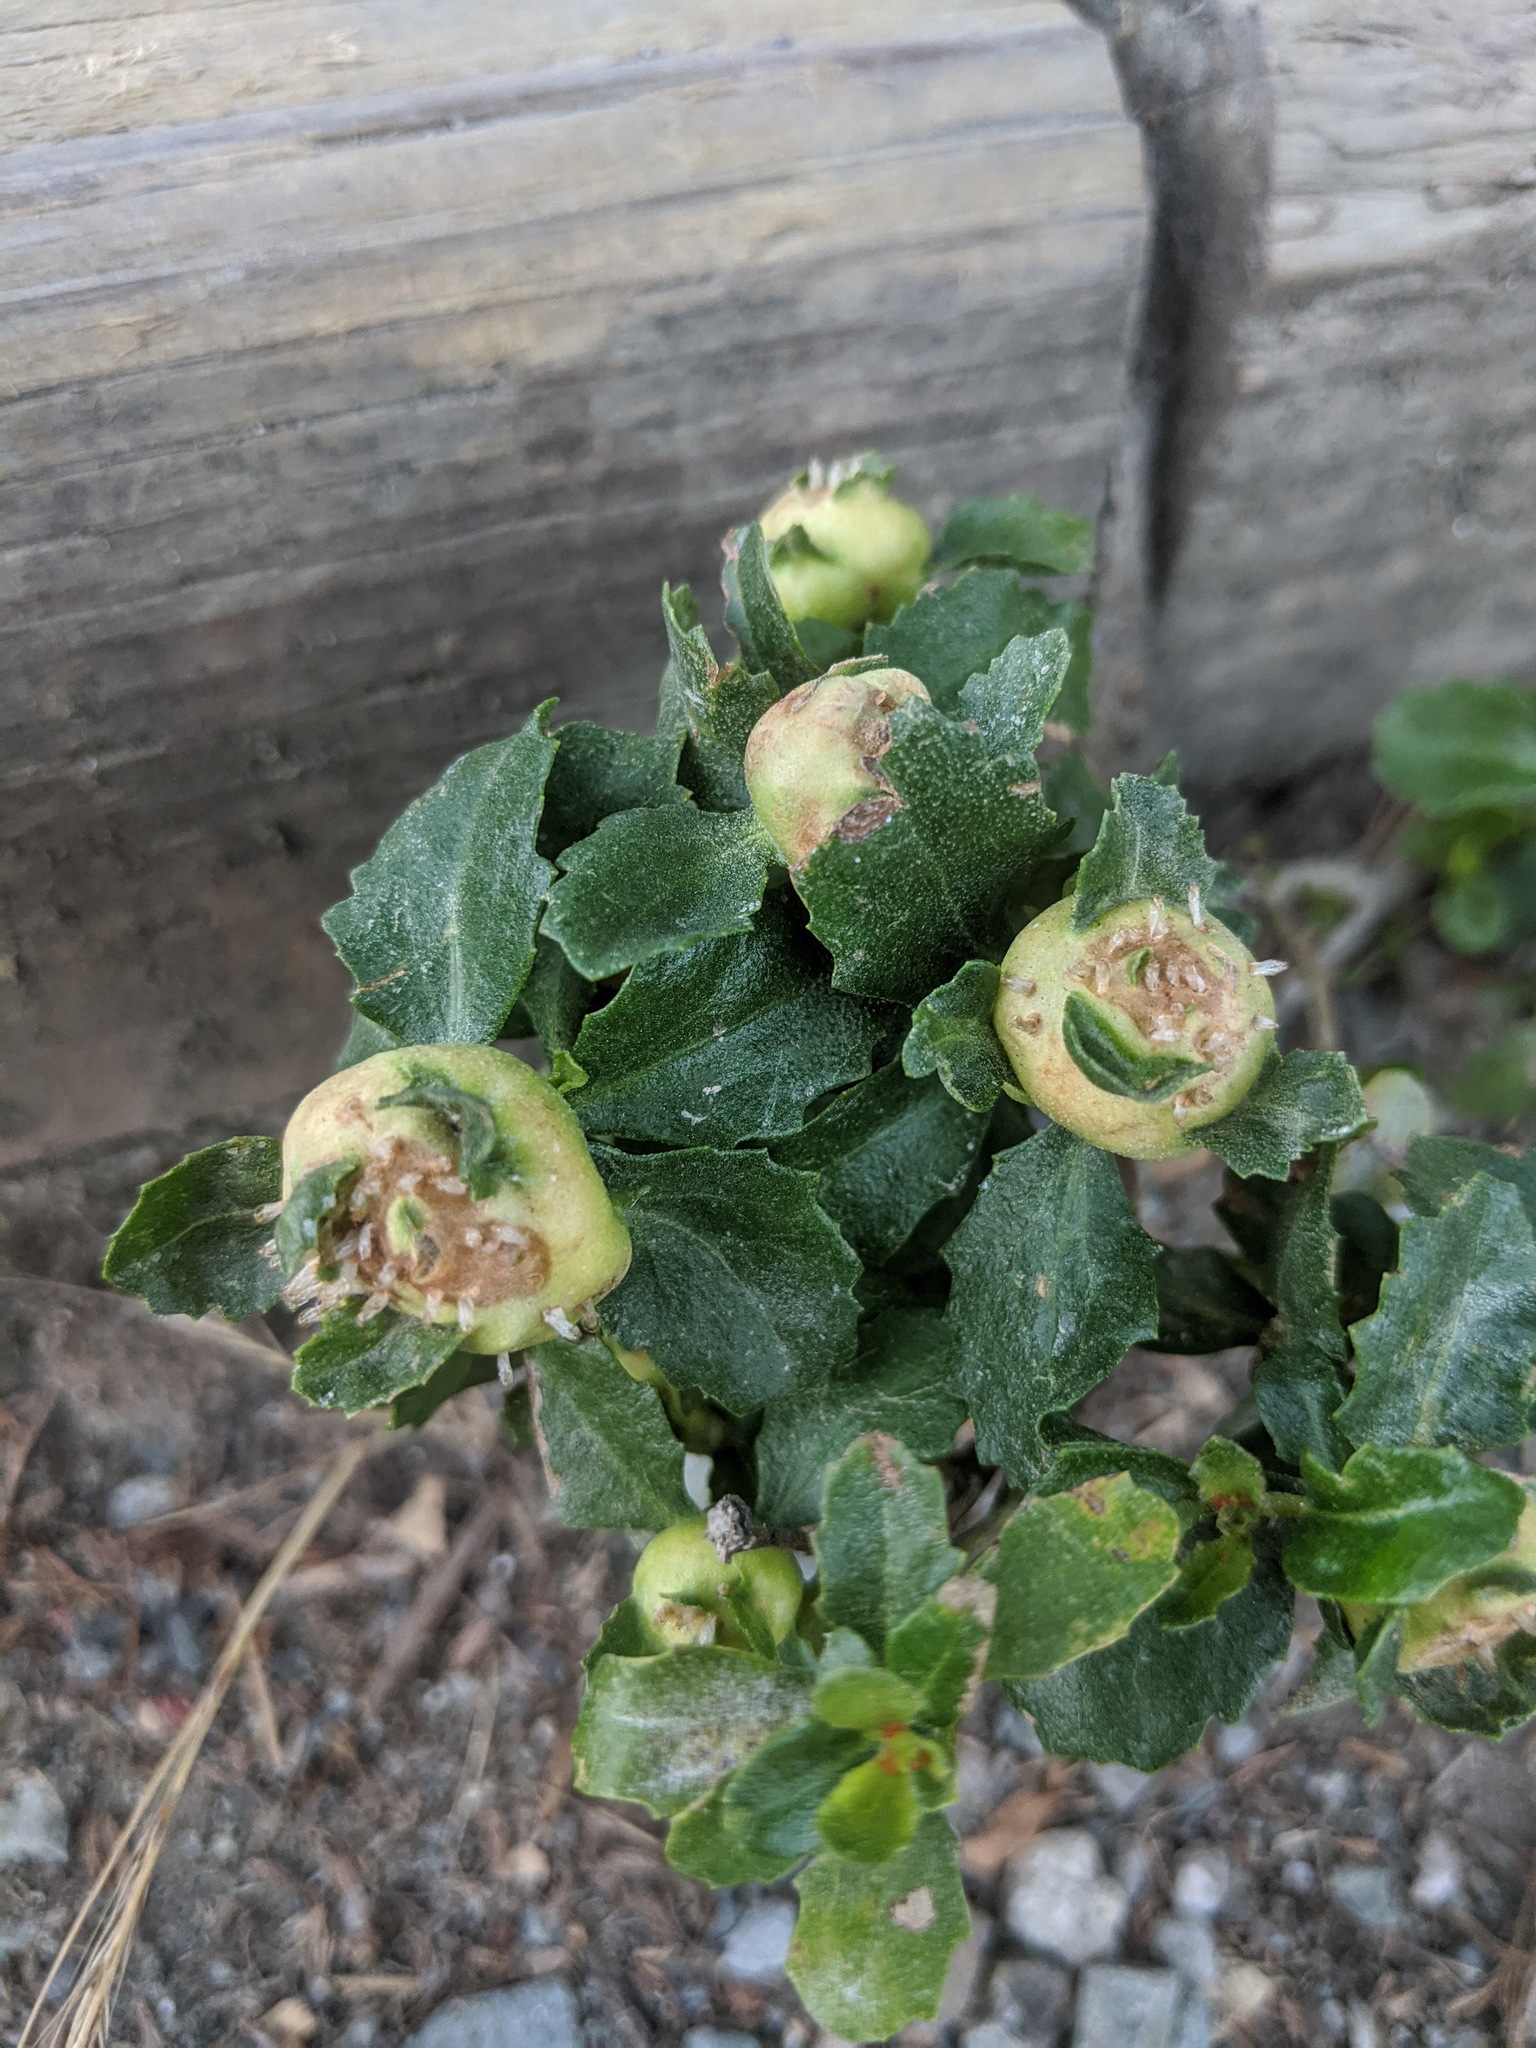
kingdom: Animalia
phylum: Arthropoda
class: Insecta
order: Diptera
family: Cecidomyiidae
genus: Rhopalomyia
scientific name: Rhopalomyia californica
